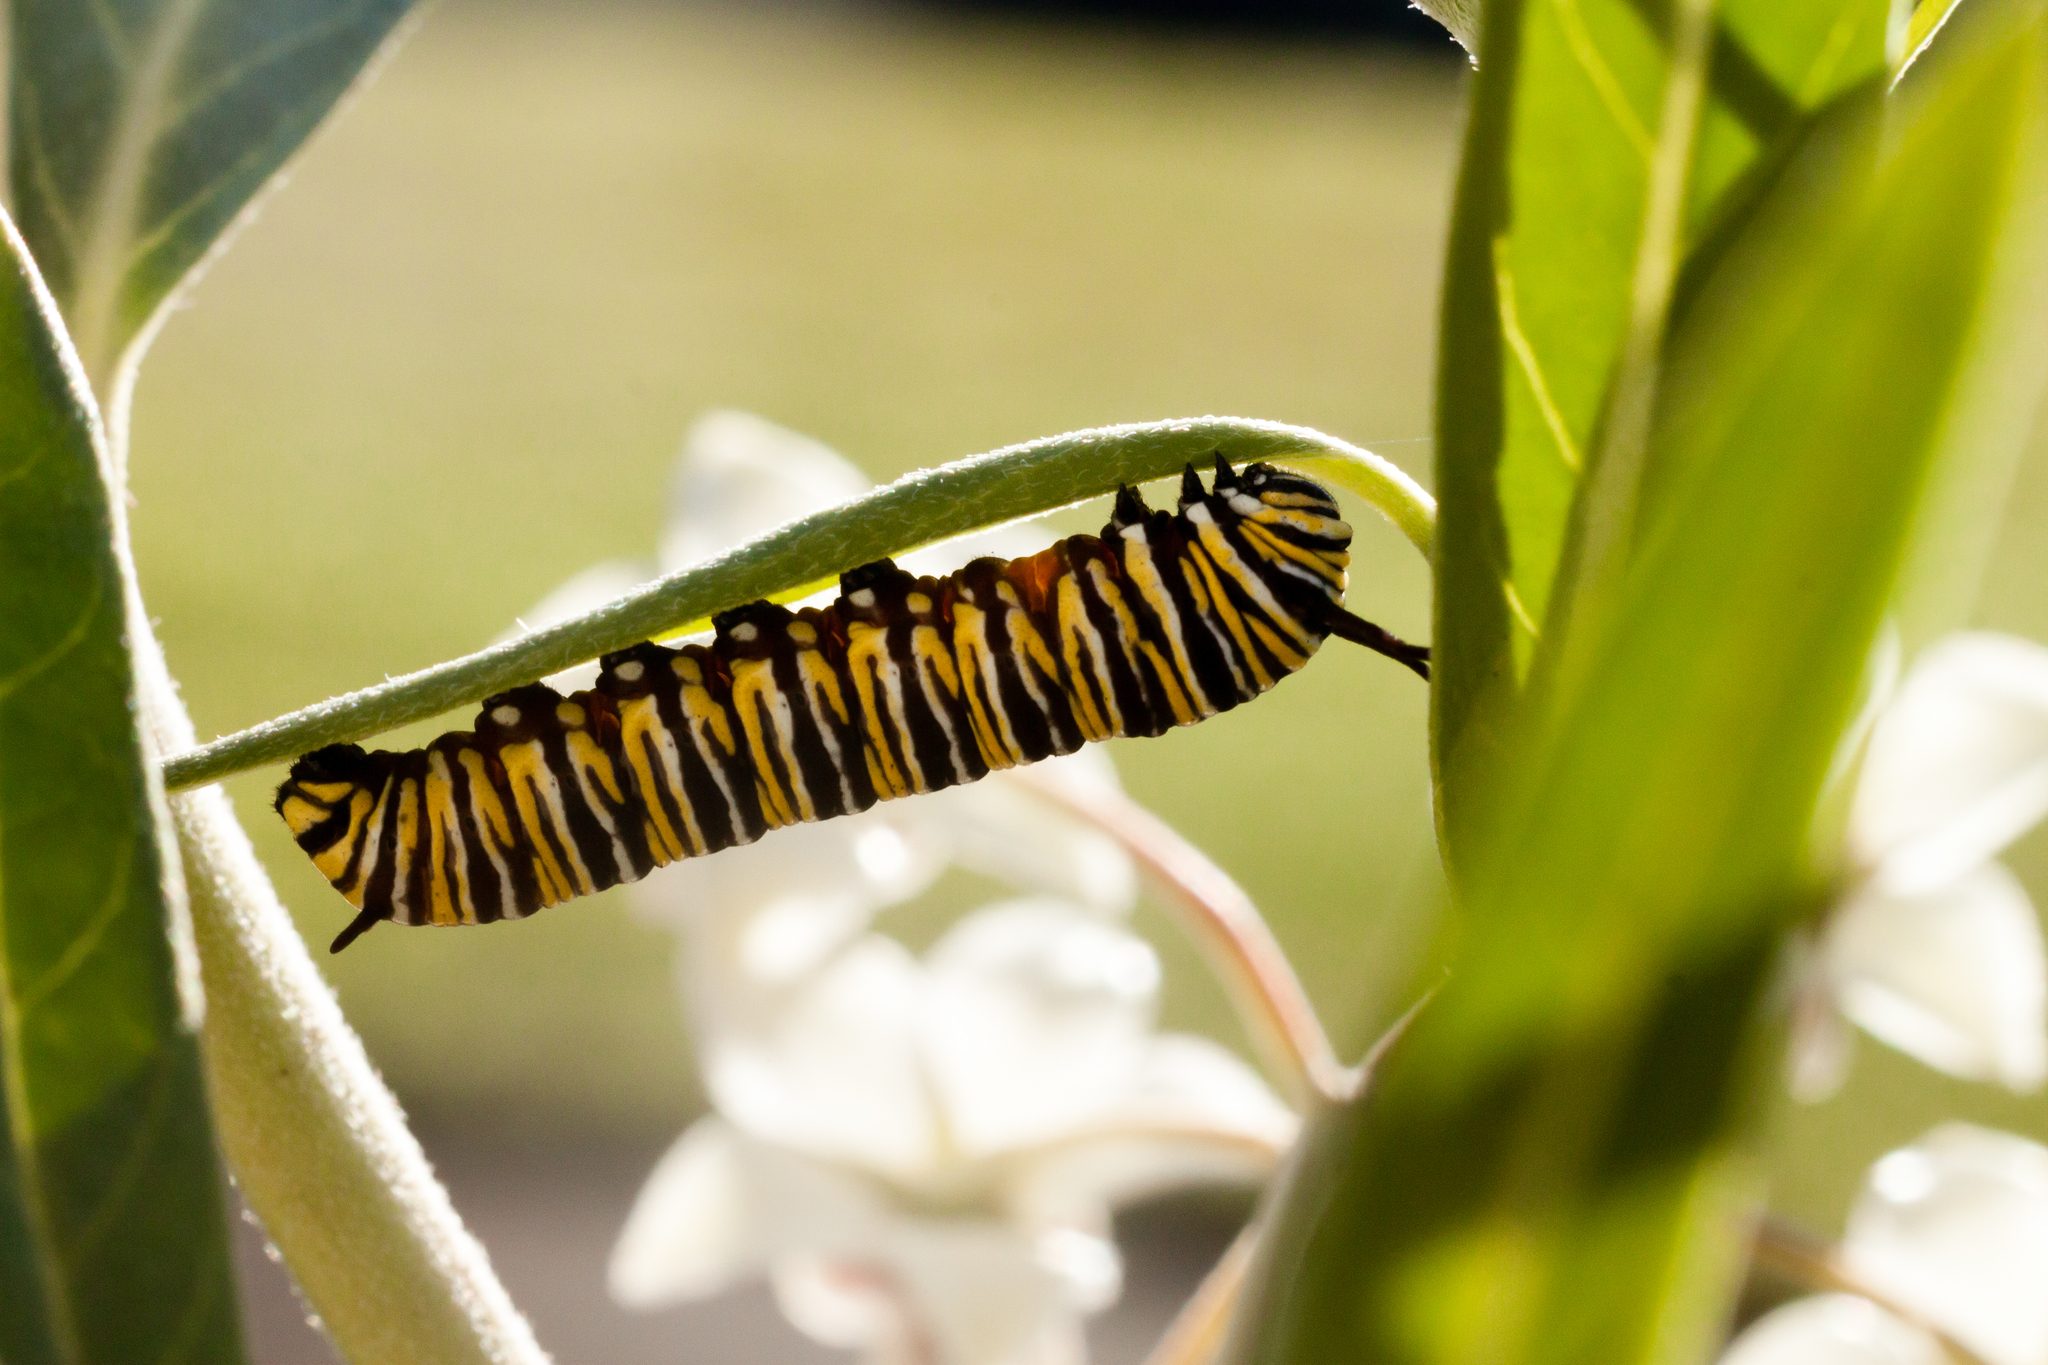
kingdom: Animalia
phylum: Arthropoda
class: Insecta
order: Lepidoptera
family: Nymphalidae
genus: Danaus
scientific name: Danaus plexippus
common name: Monarch
